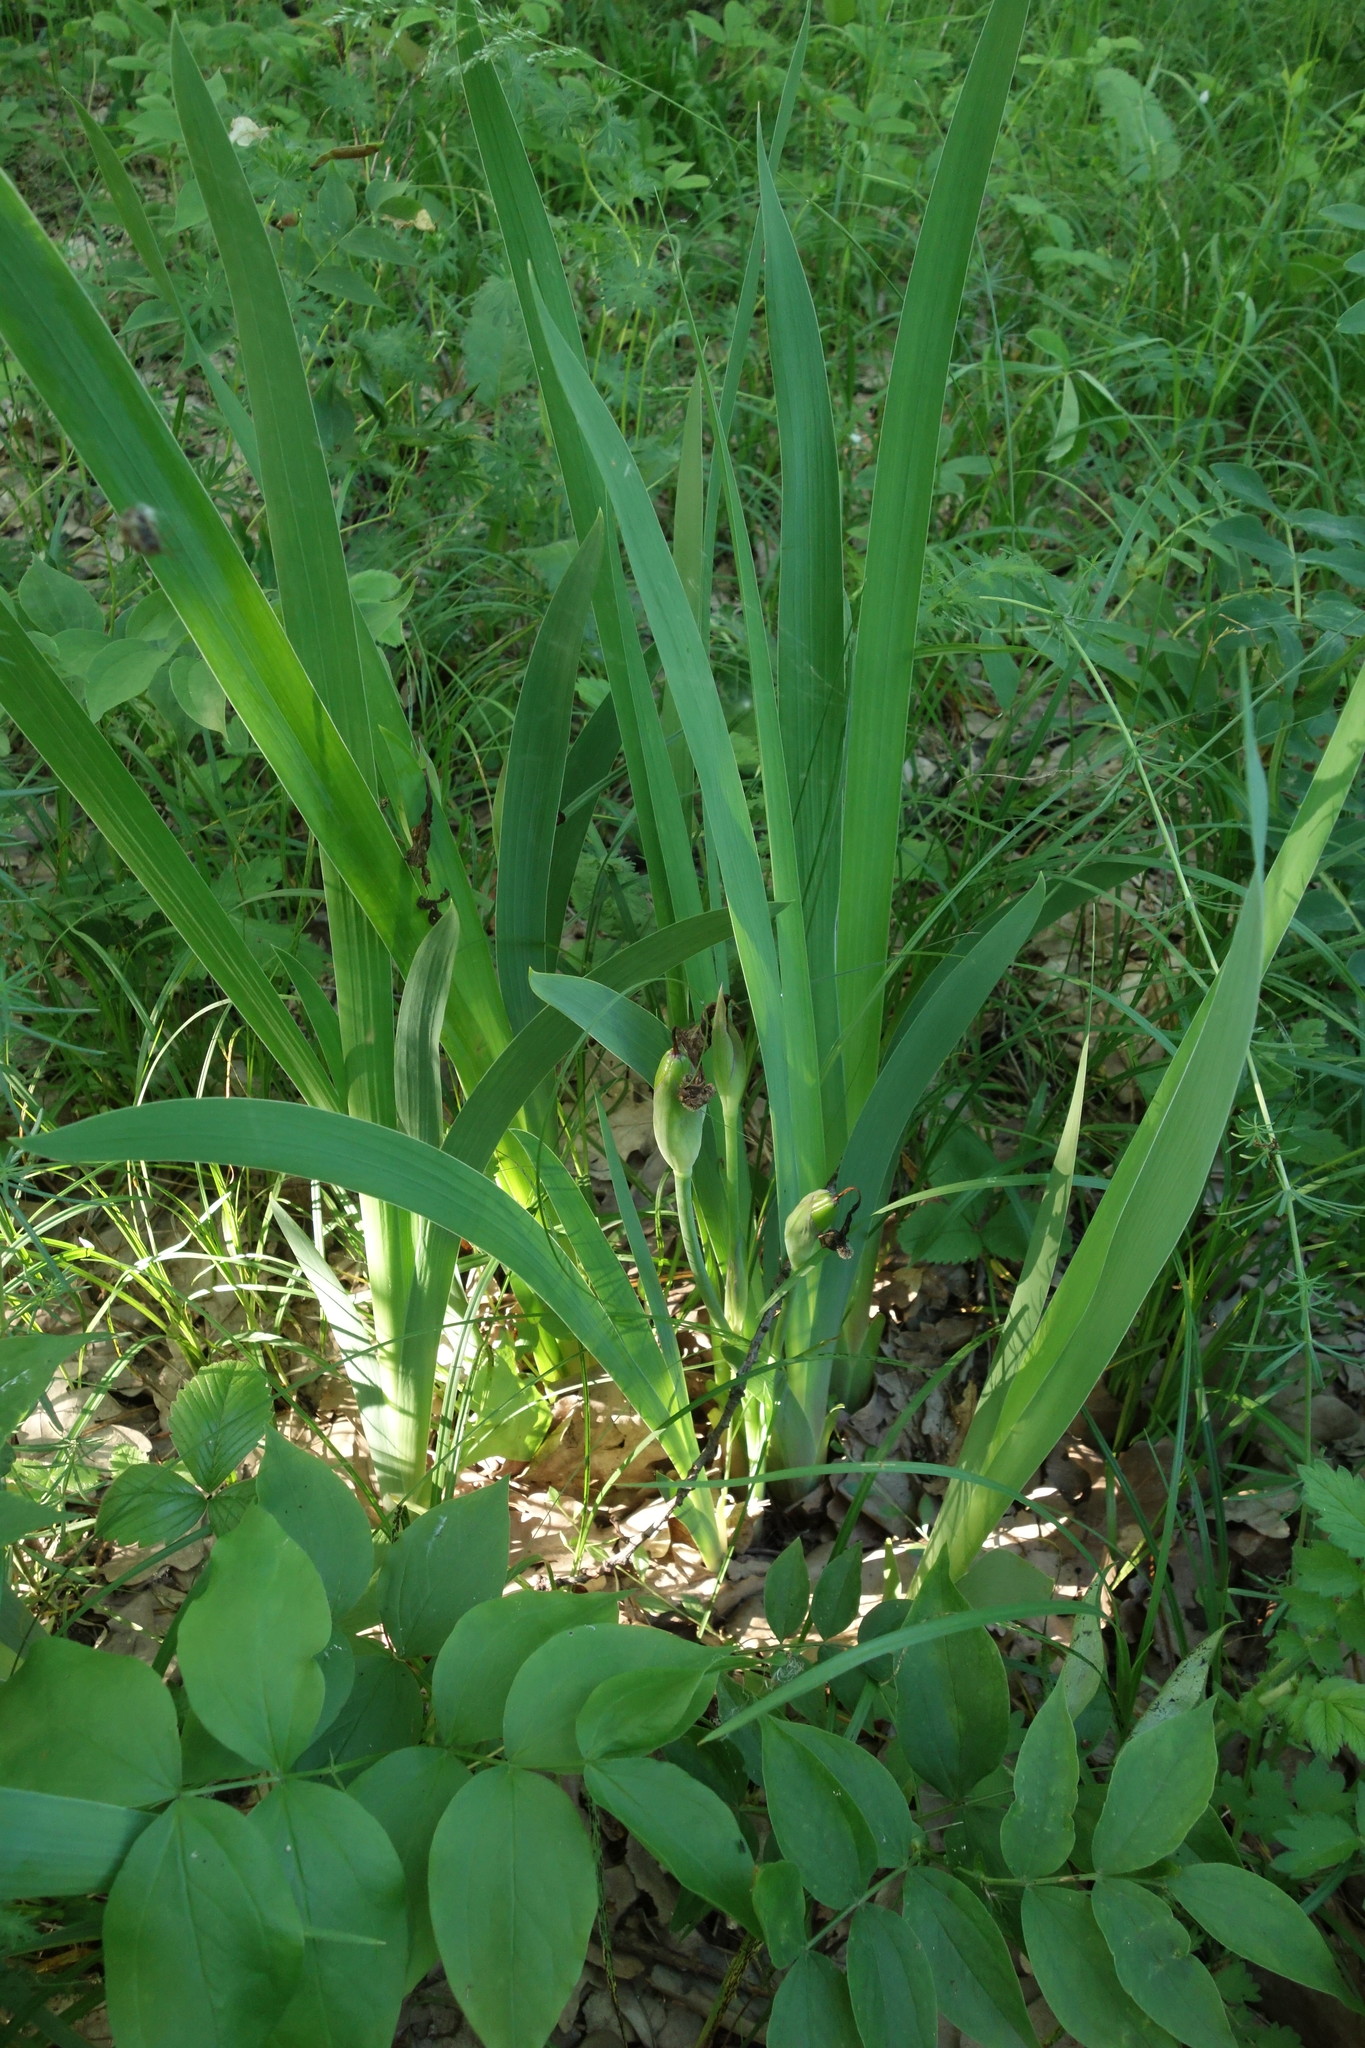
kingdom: Plantae
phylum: Tracheophyta
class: Liliopsida
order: Asparagales
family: Iridaceae
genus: Iris
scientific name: Iris aphylla
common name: Stool iris
